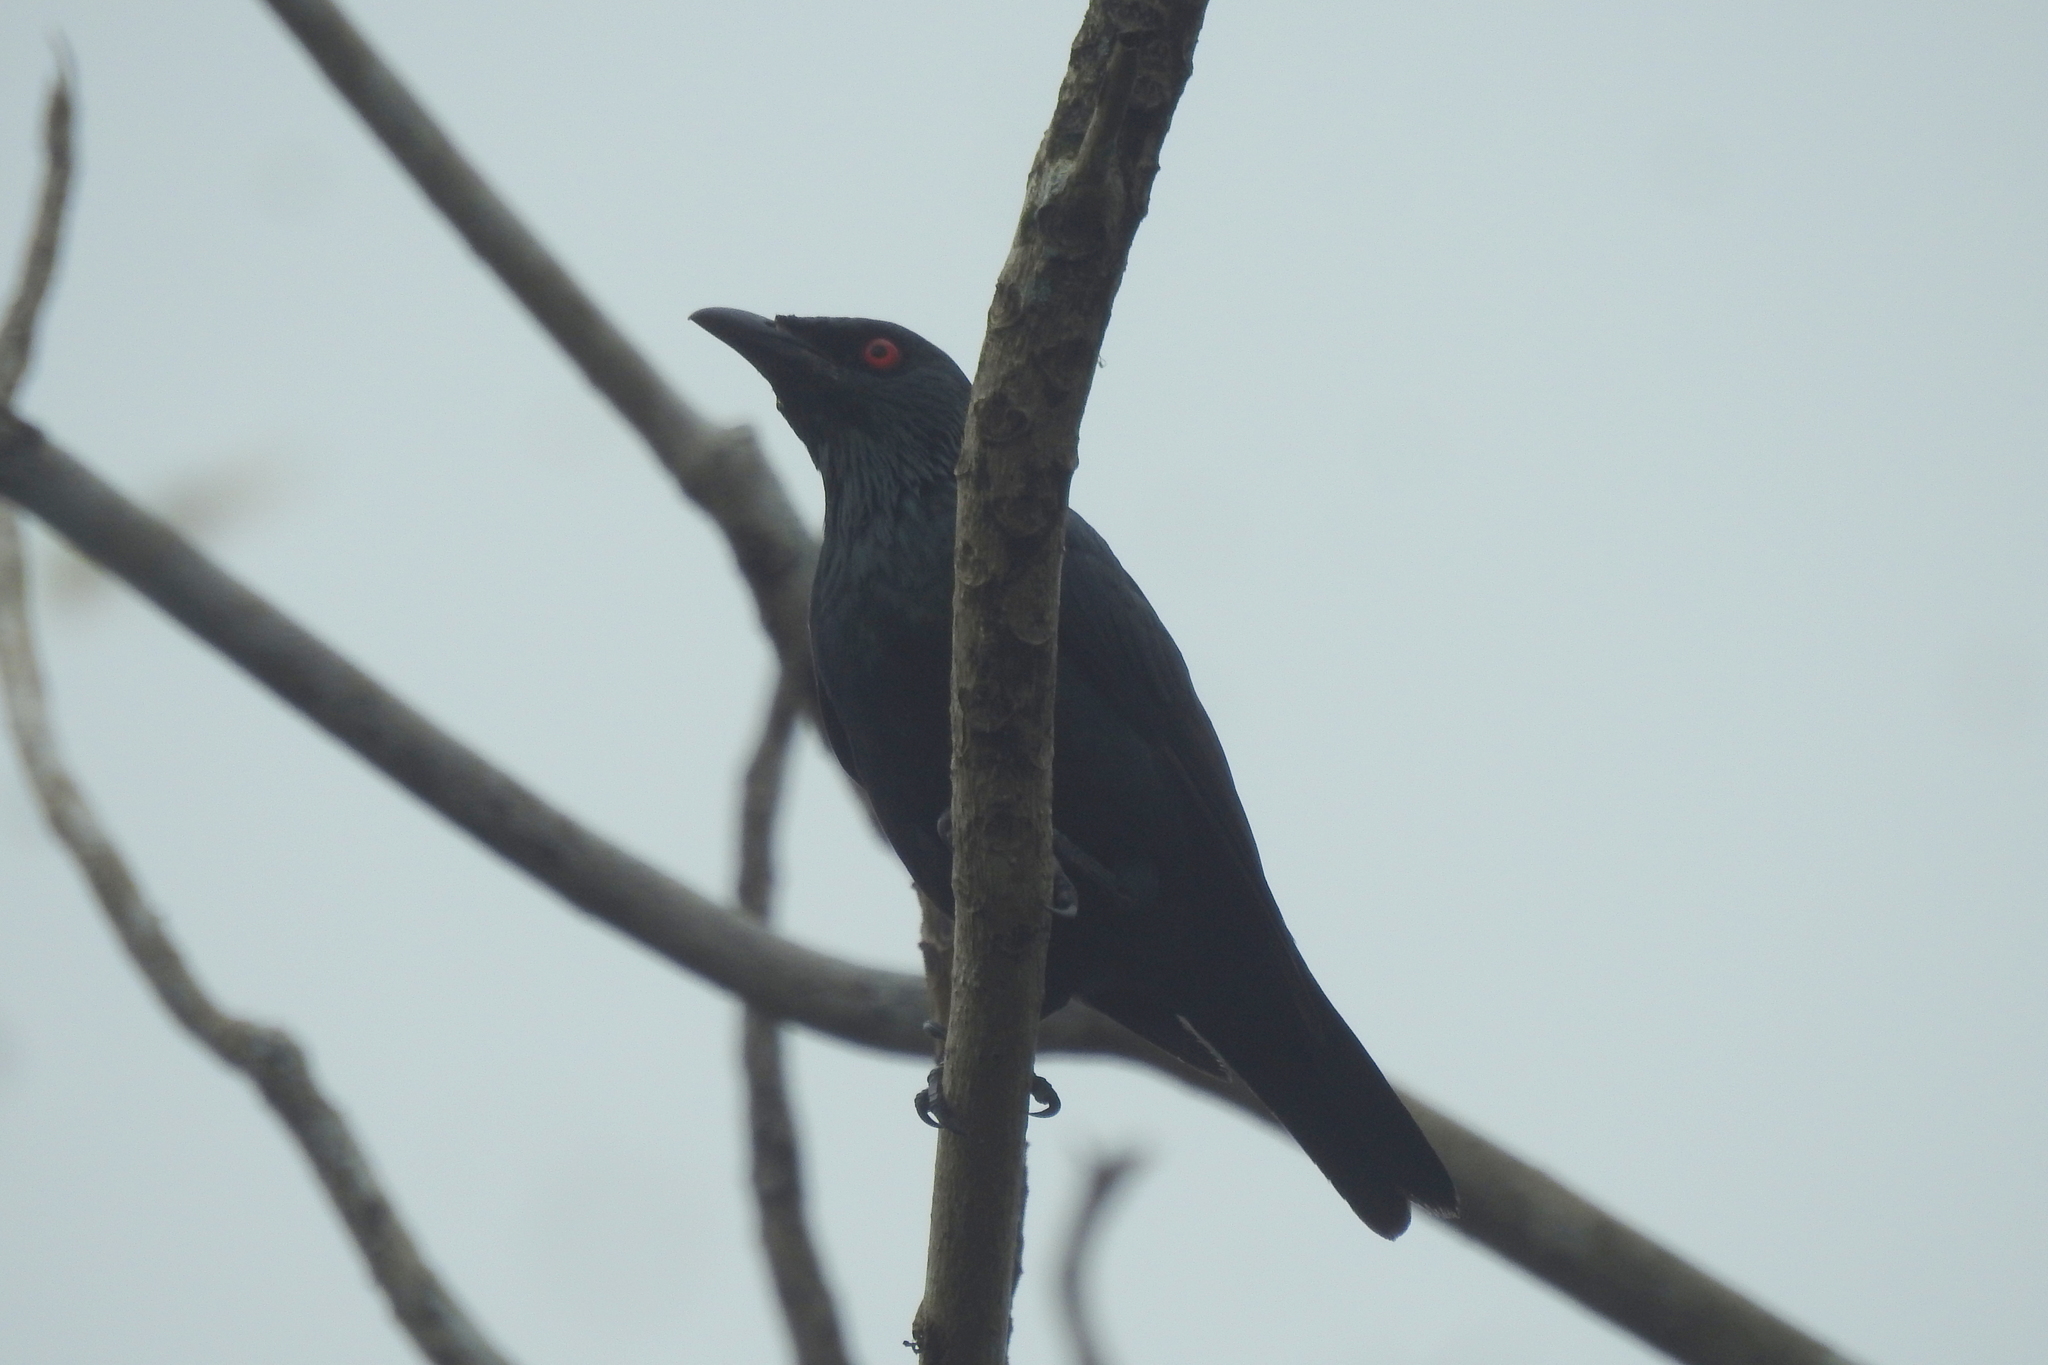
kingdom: Animalia
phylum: Chordata
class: Aves
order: Passeriformes
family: Sturnidae
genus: Aplonis
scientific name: Aplonis panayensis
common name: Asian glossy starling
